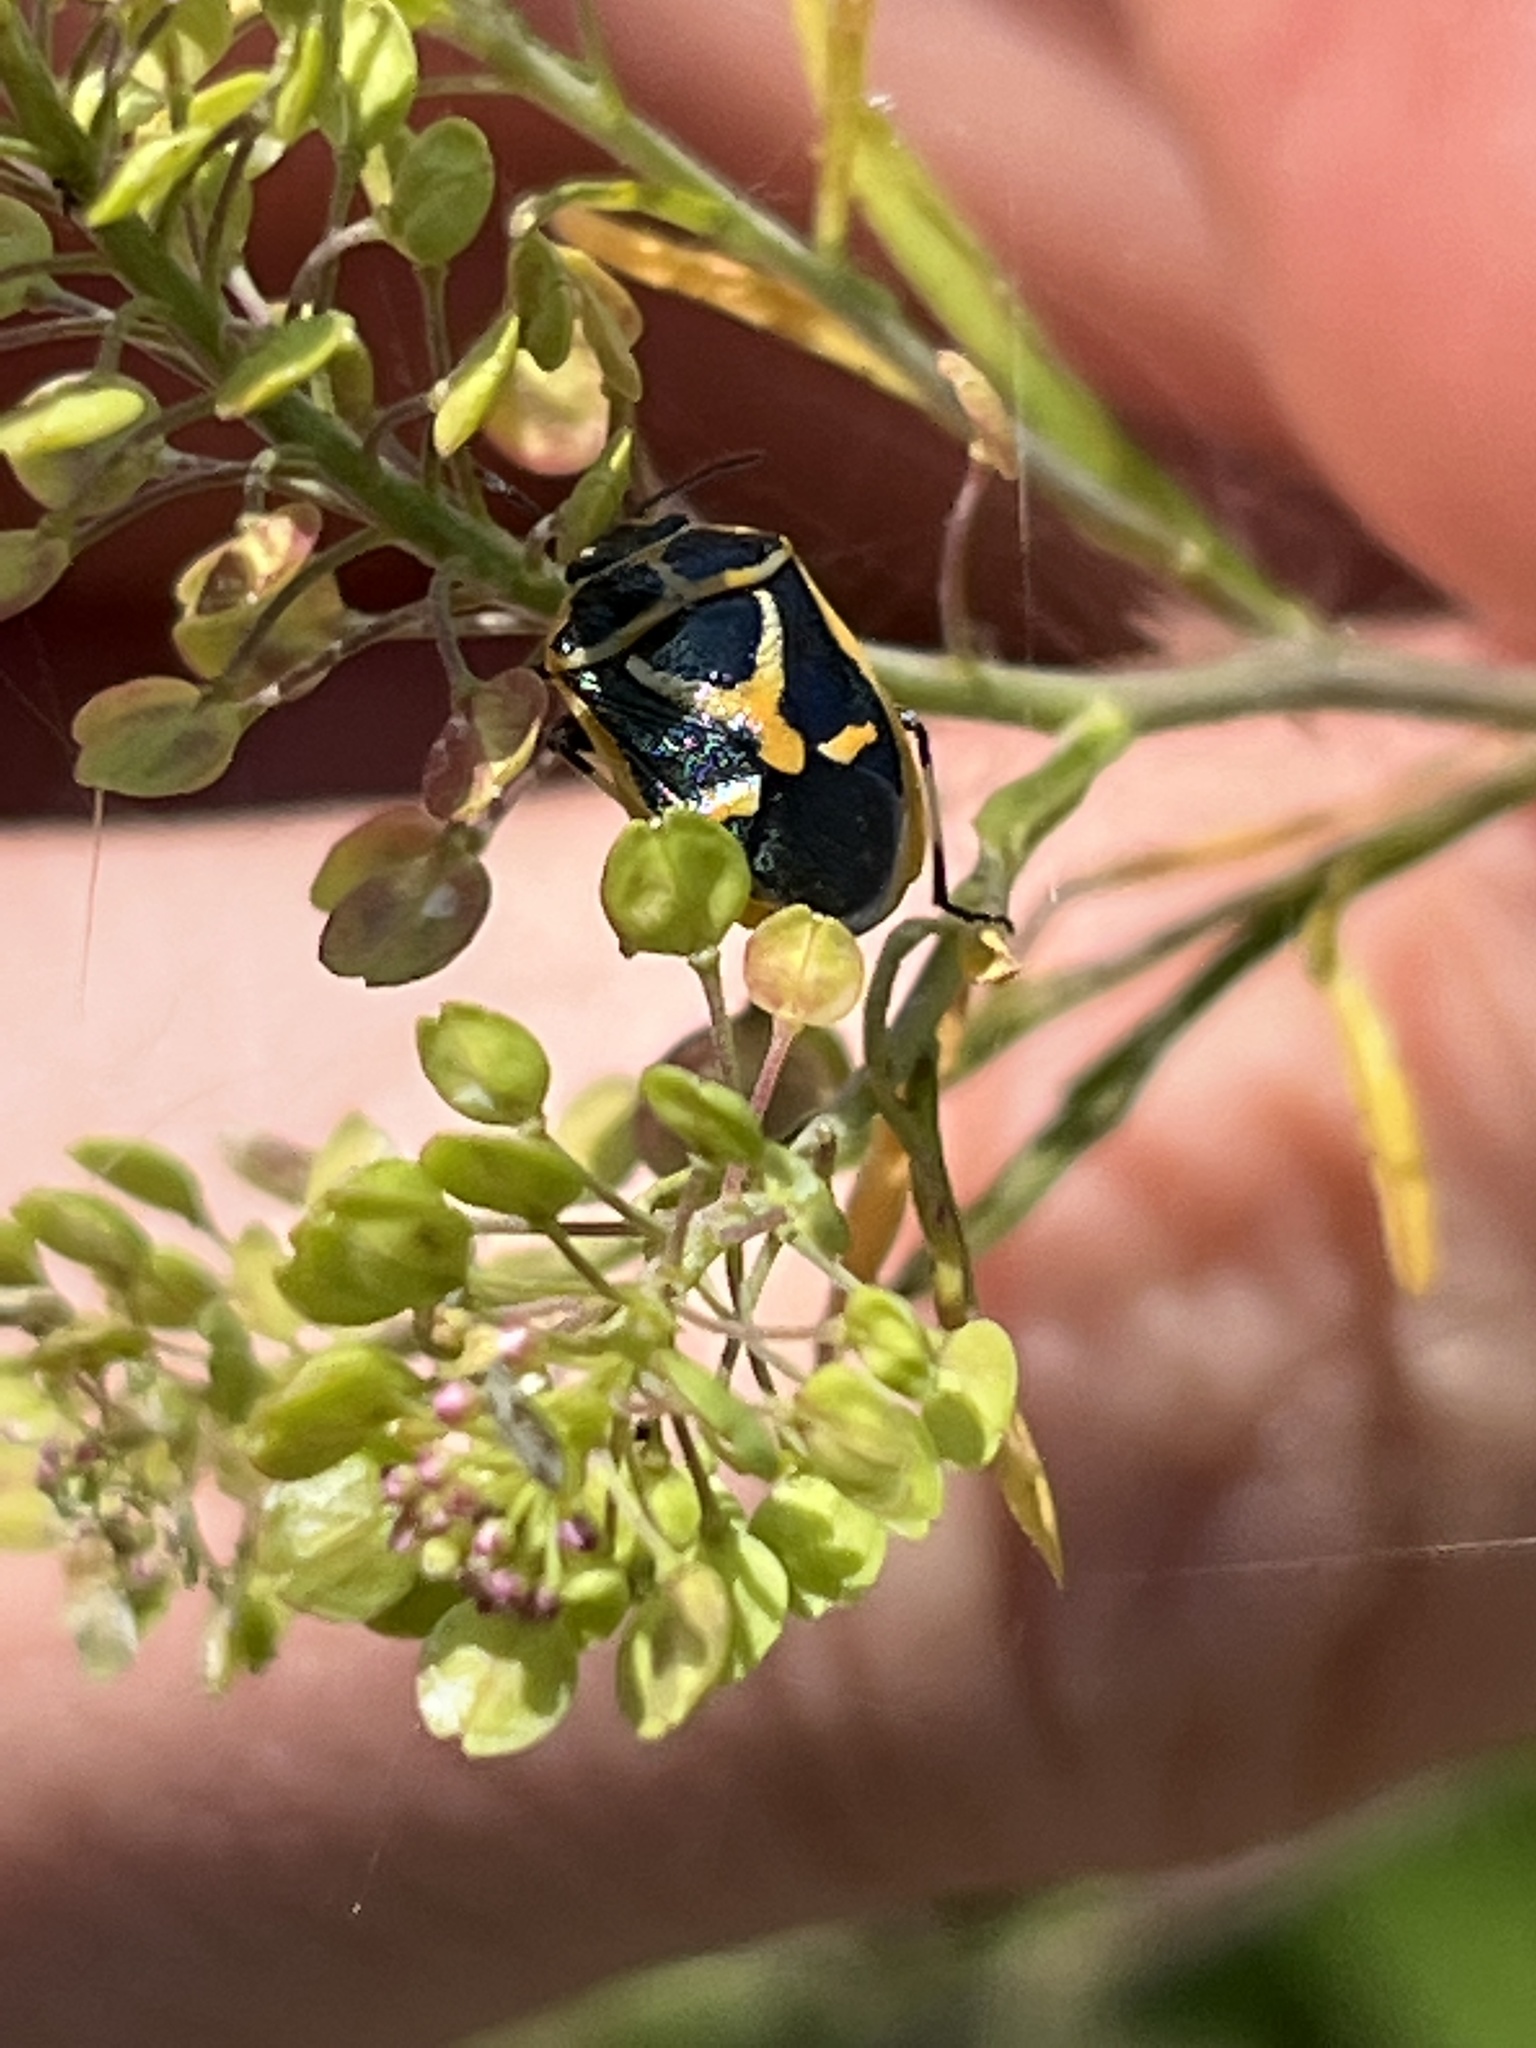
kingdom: Animalia
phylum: Arthropoda
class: Insecta
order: Hemiptera
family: Pentatomidae
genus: Eurydema
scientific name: Eurydema gebleri
